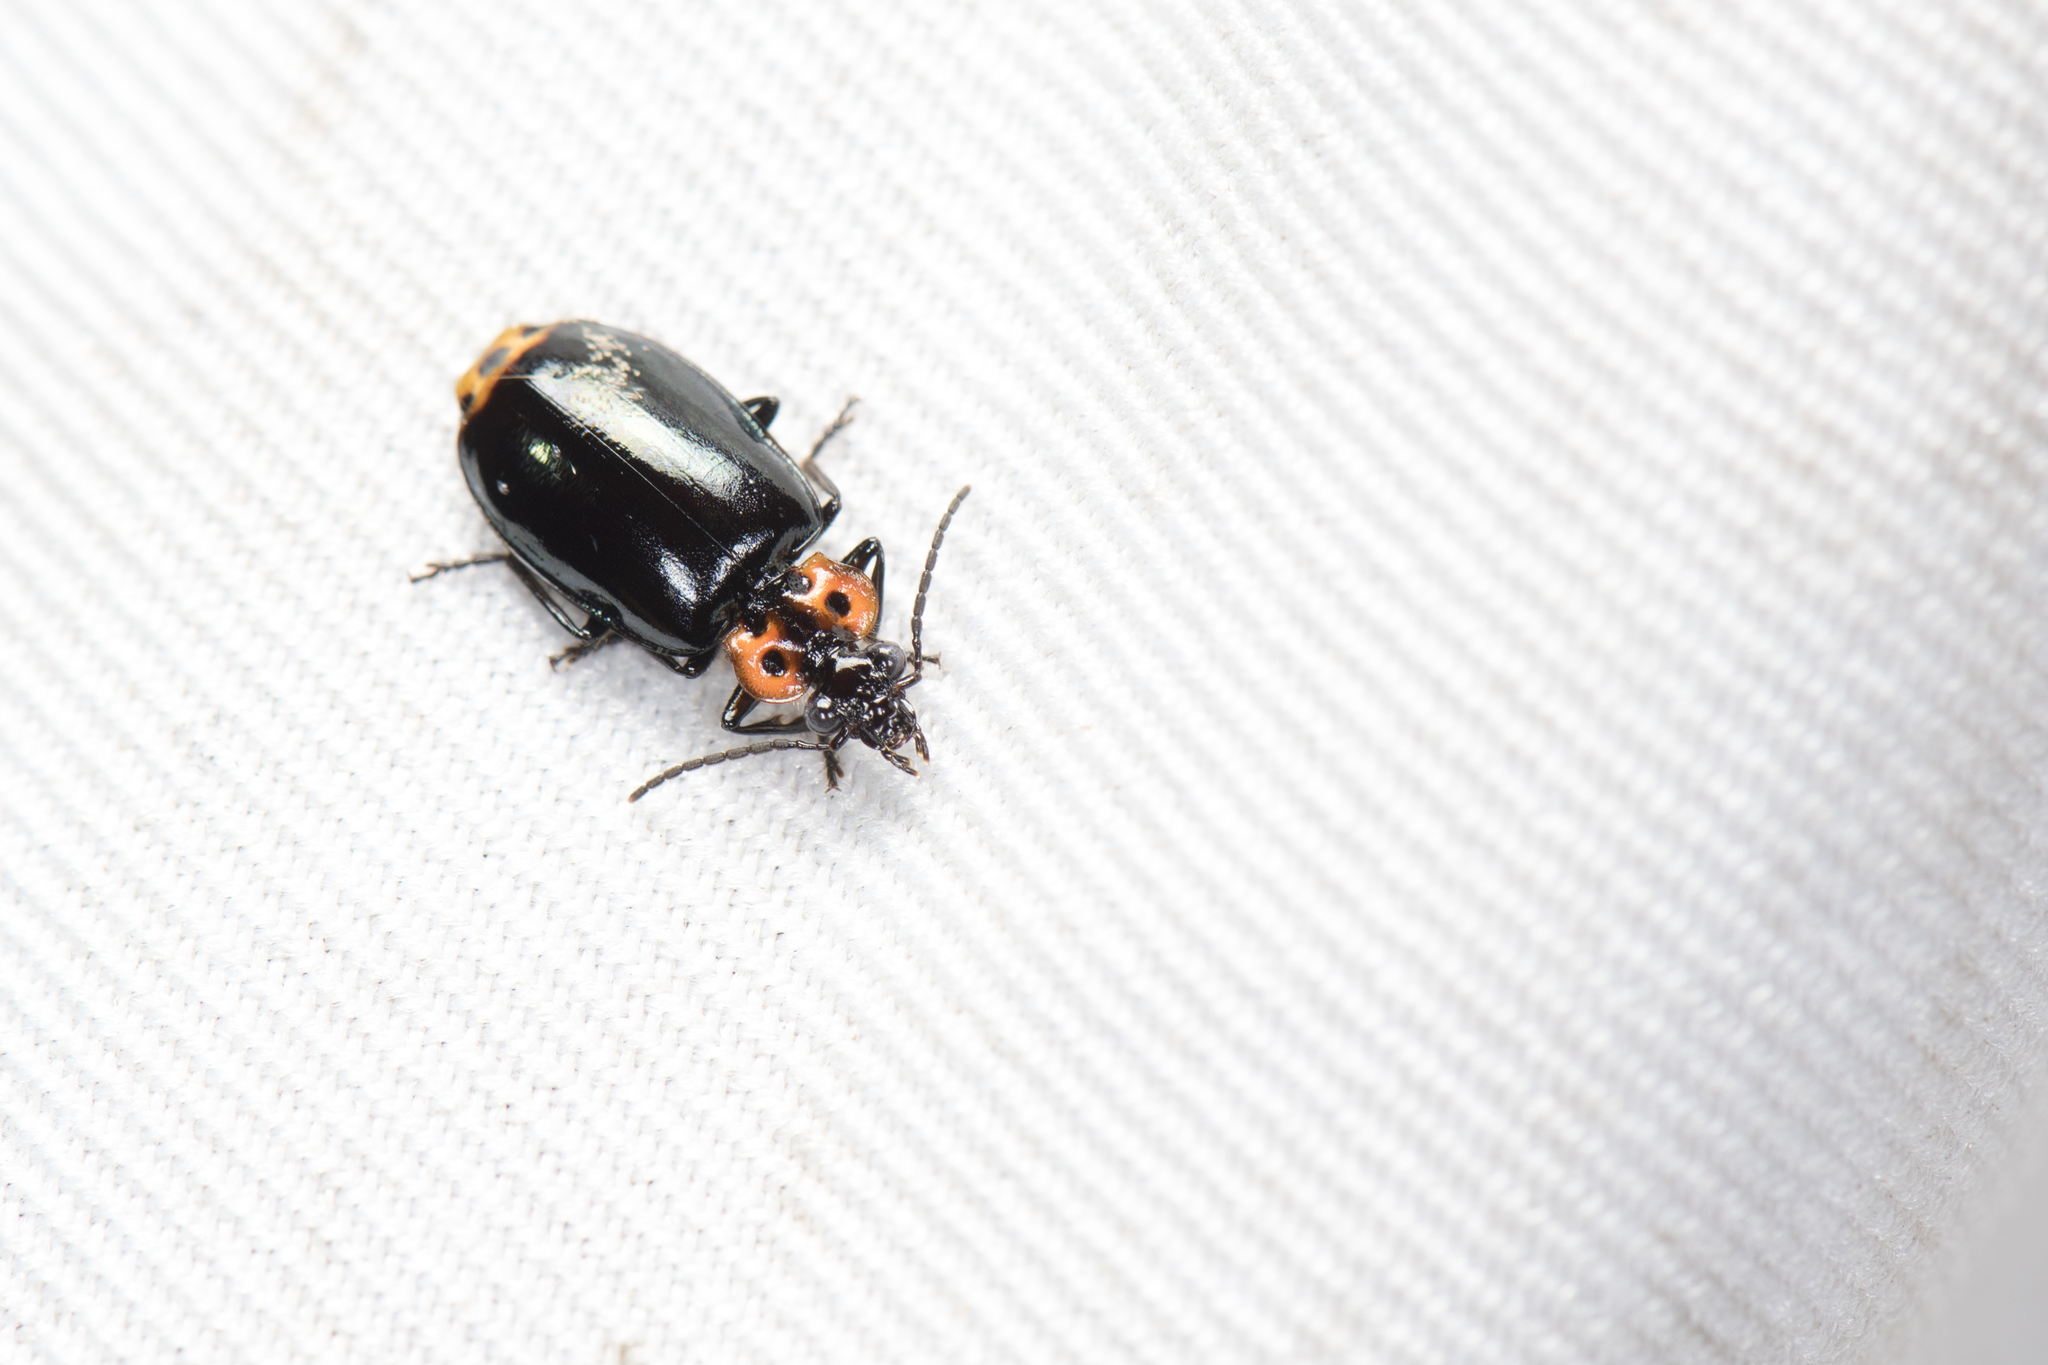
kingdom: Animalia
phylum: Arthropoda
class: Insecta
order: Coleoptera
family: Carabidae
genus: Physodera
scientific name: Physodera amplicollis
